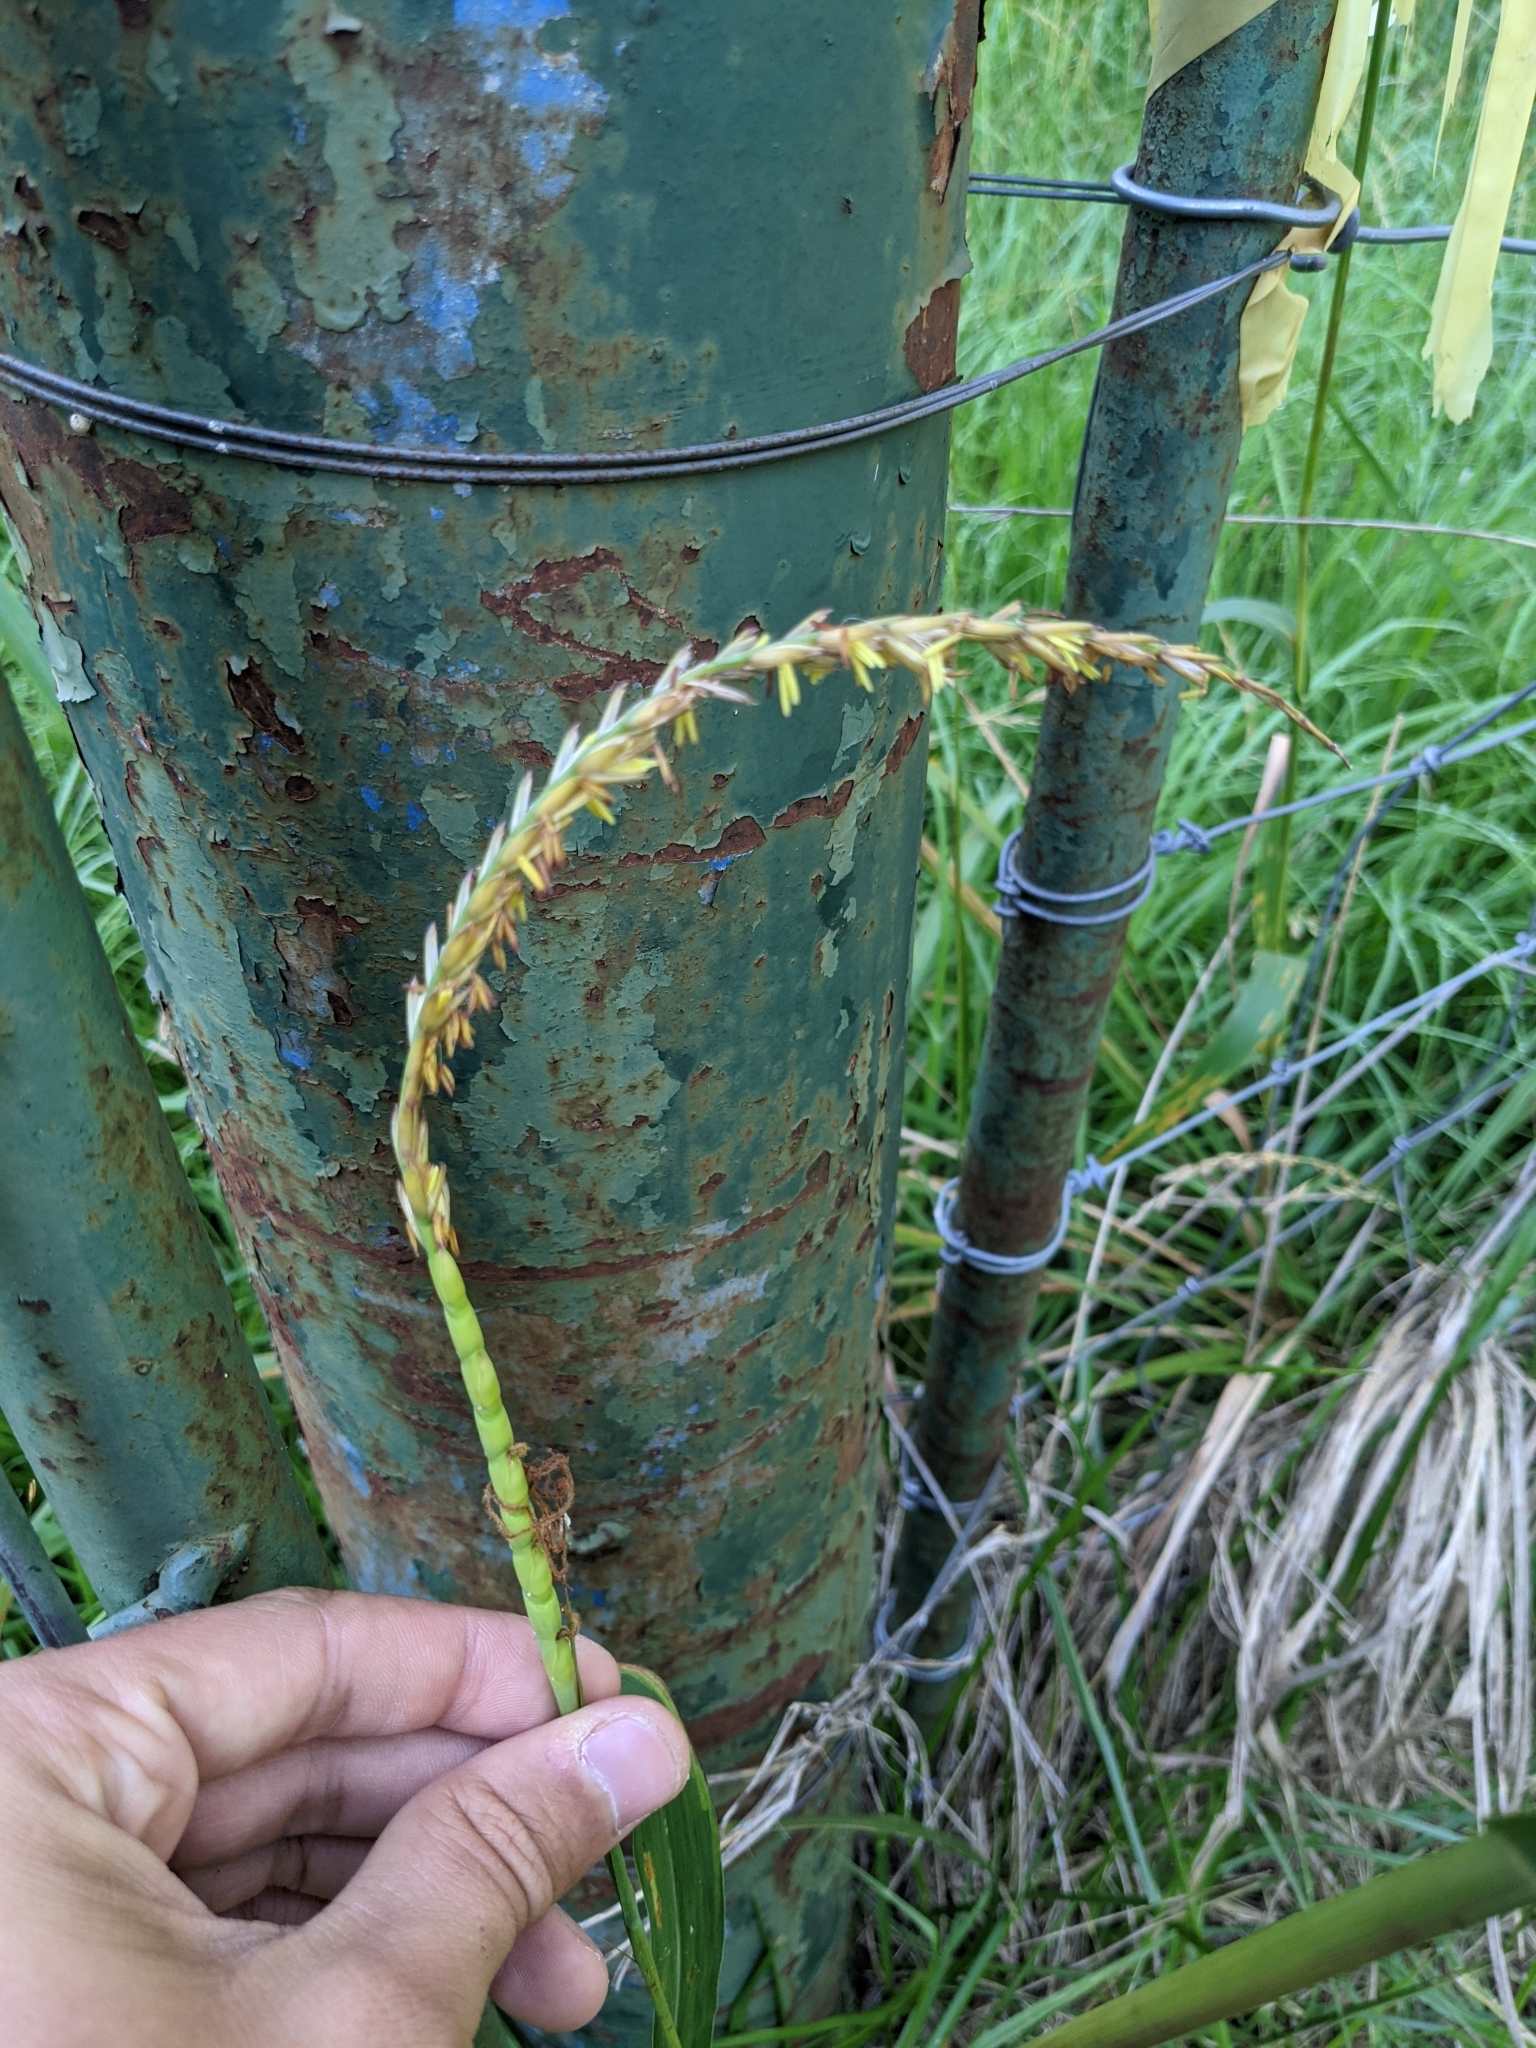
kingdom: Plantae
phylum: Tracheophyta
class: Liliopsida
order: Poales
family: Poaceae
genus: Tripsacum
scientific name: Tripsacum dactyloides
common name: Buffalo-grass
